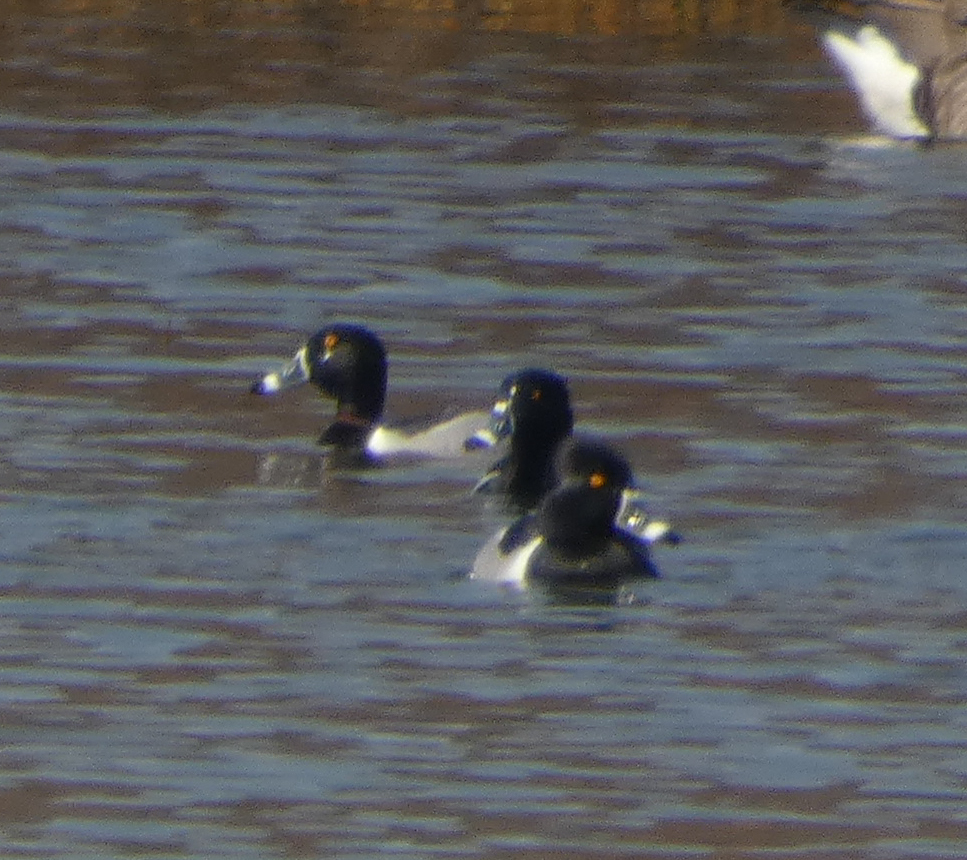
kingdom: Animalia
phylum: Chordata
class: Aves
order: Anseriformes
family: Anatidae
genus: Aythya
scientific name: Aythya collaris
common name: Ring-necked duck
